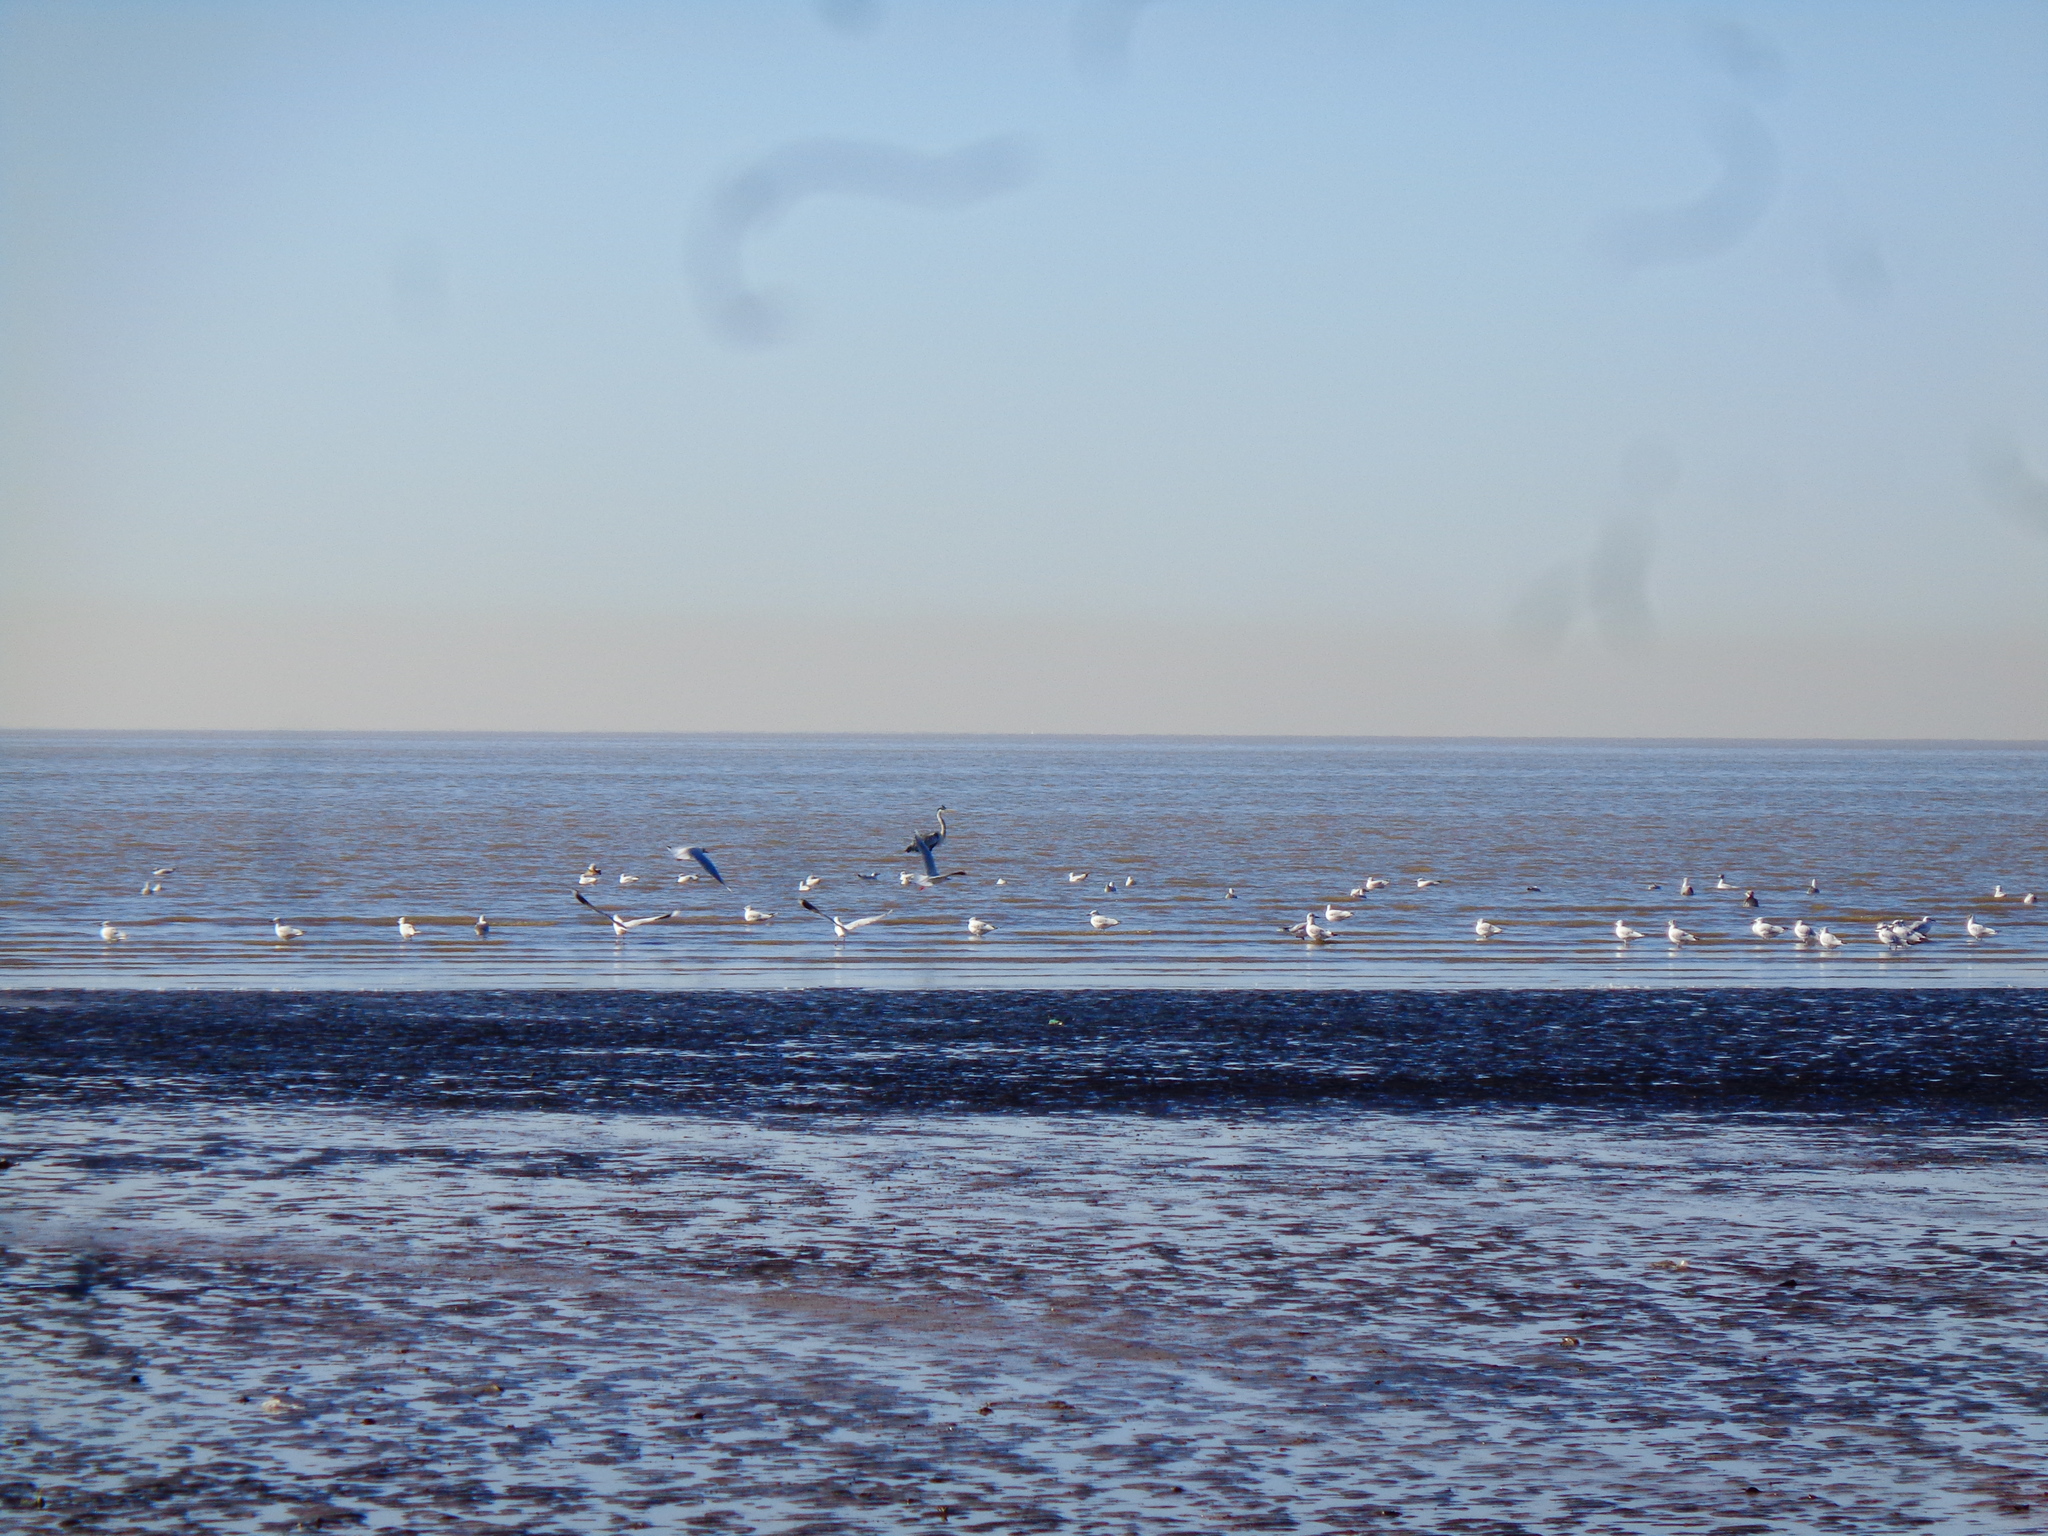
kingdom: Animalia
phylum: Chordata
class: Aves
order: Charadriiformes
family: Laridae
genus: Larus
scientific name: Larus dominicanus
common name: Kelp gull
